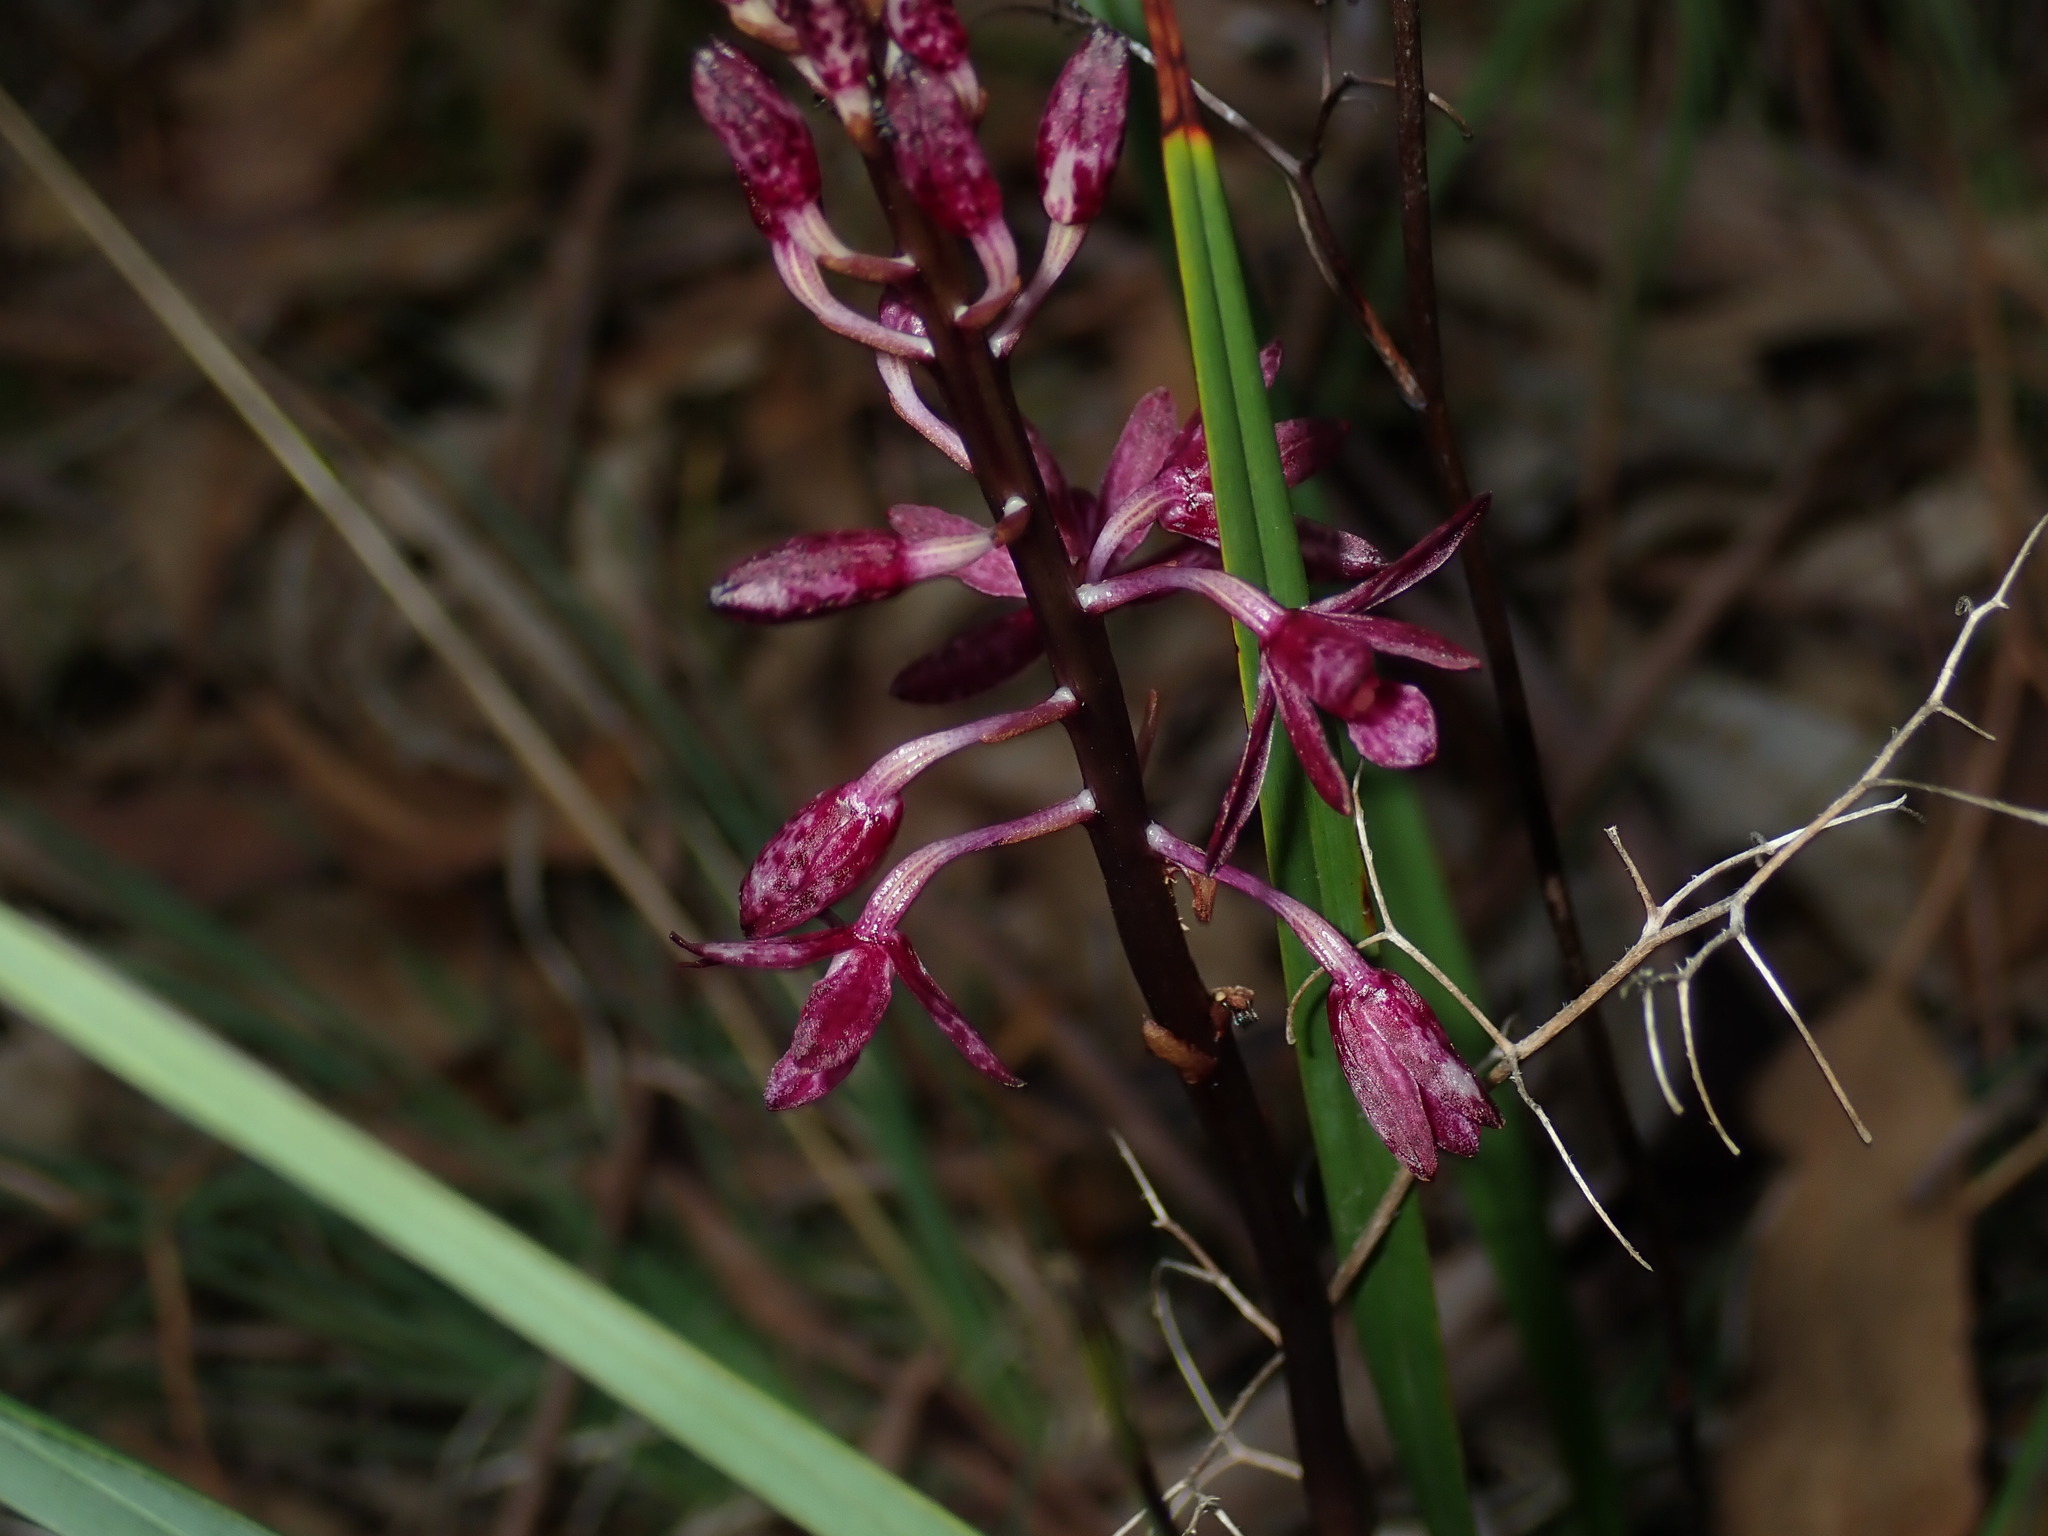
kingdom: Plantae
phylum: Tracheophyta
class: Liliopsida
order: Asparagales
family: Orchidaceae
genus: Dipodium
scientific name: Dipodium squamatum
